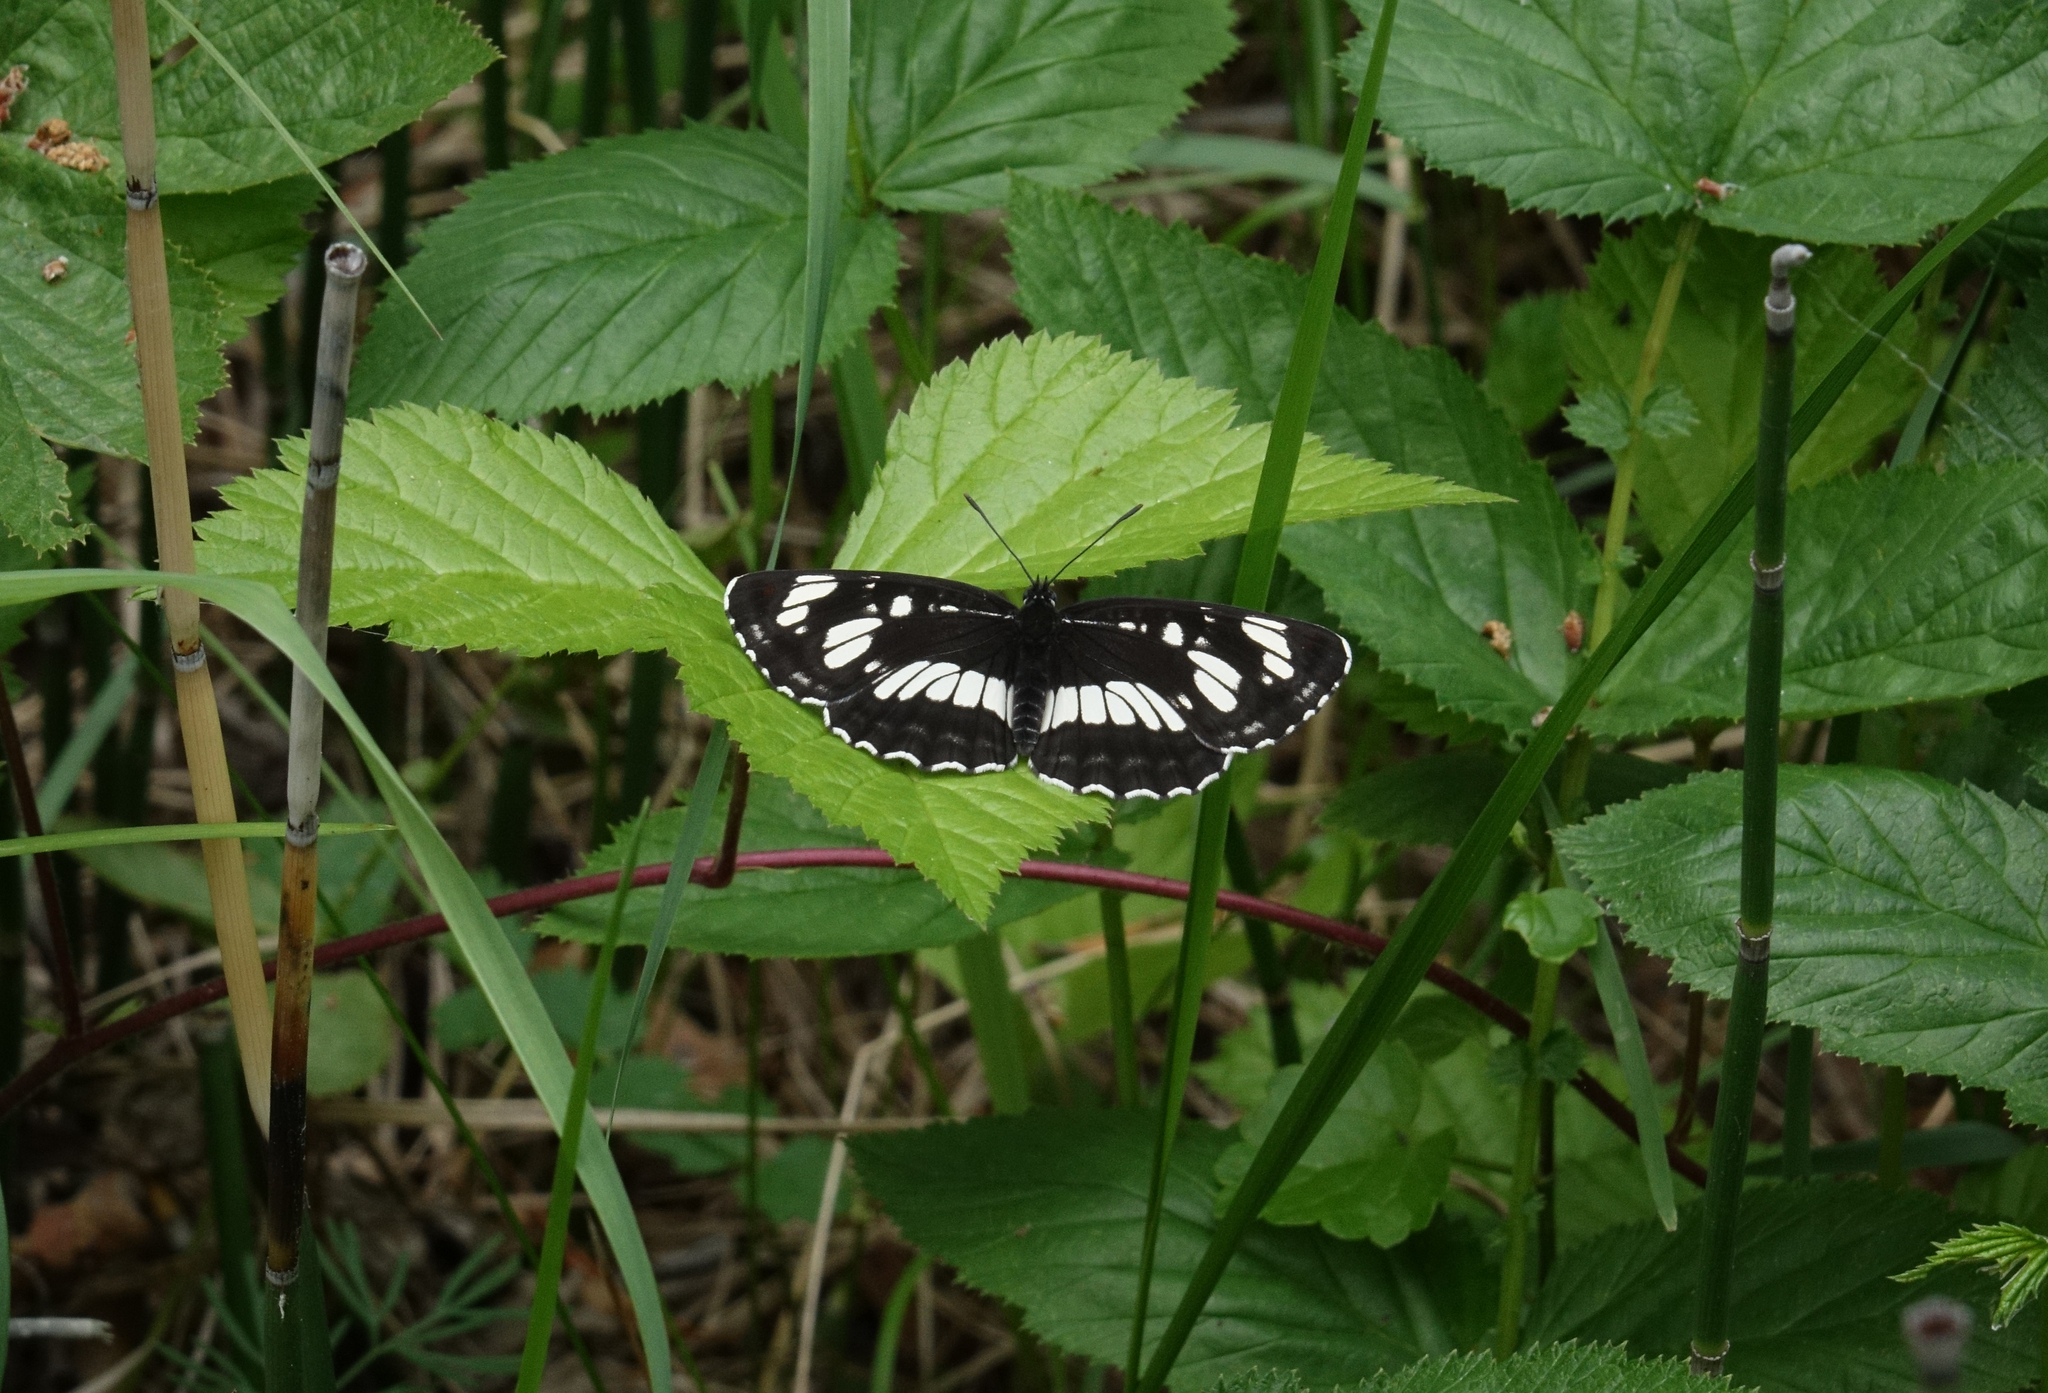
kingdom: Animalia
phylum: Arthropoda
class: Insecta
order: Lepidoptera
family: Nymphalidae
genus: Neptis
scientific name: Neptis rivularis
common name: Hungarian glider
